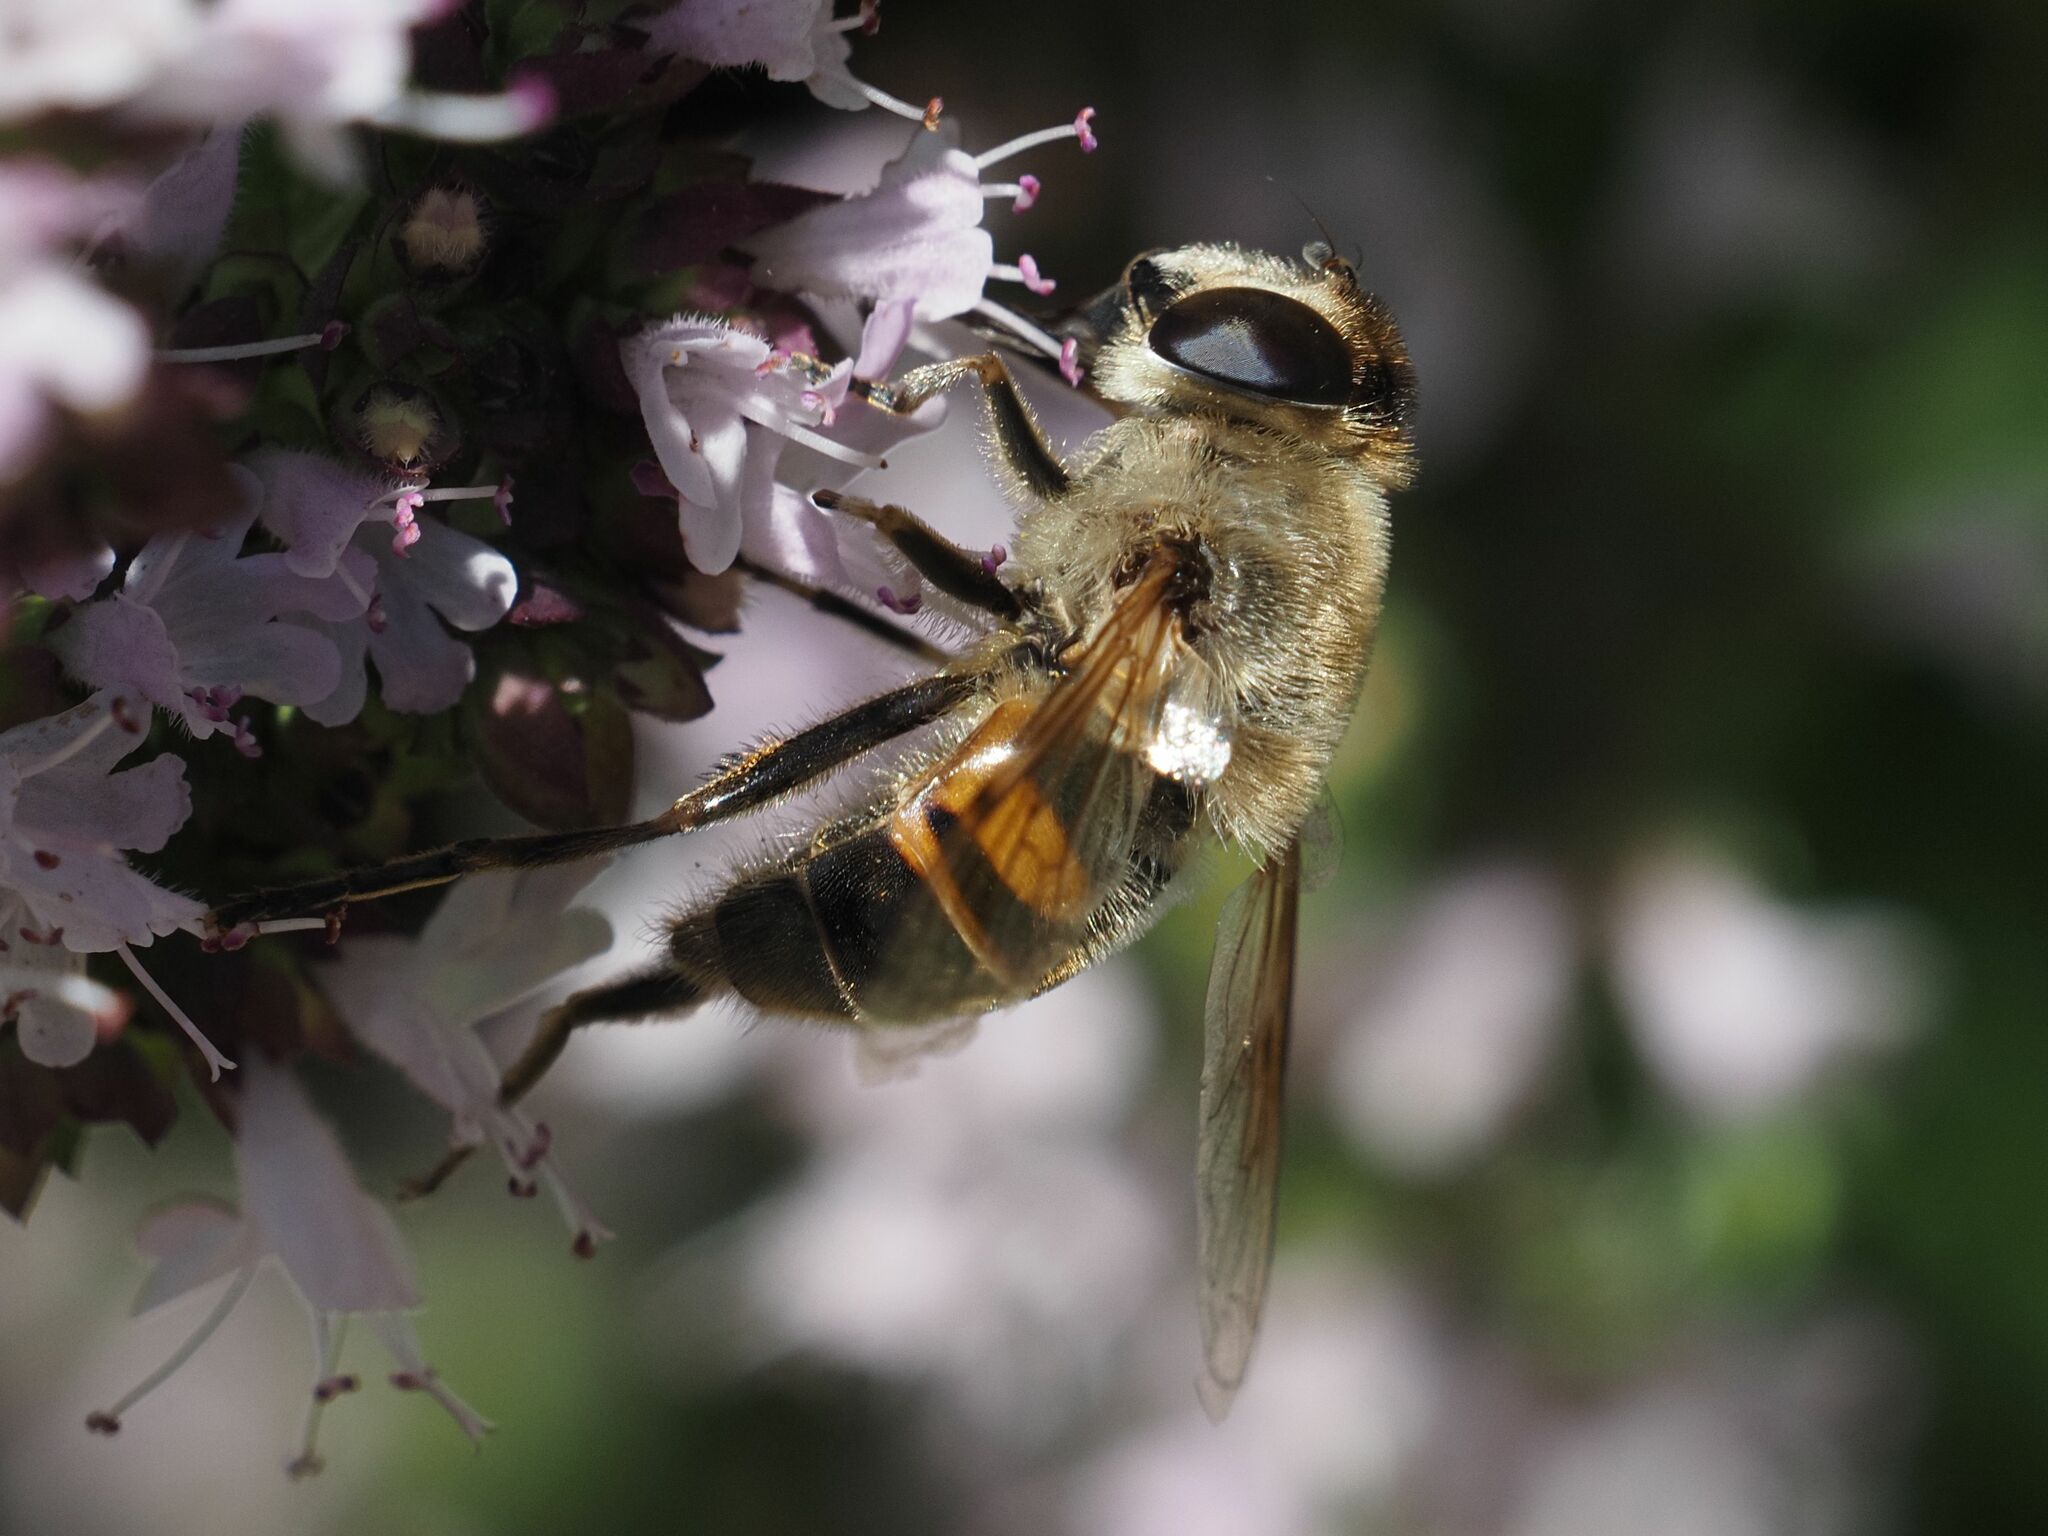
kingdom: Animalia
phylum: Arthropoda
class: Insecta
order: Diptera
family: Syrphidae
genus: Eristalis
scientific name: Eristalis tenax
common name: Drone fly
